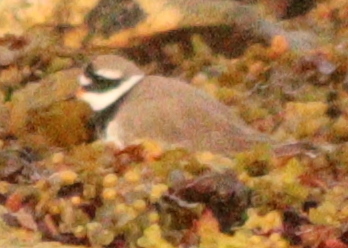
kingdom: Animalia
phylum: Chordata
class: Aves
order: Charadriiformes
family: Charadriidae
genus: Charadrius
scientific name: Charadrius hiaticula
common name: Common ringed plover
